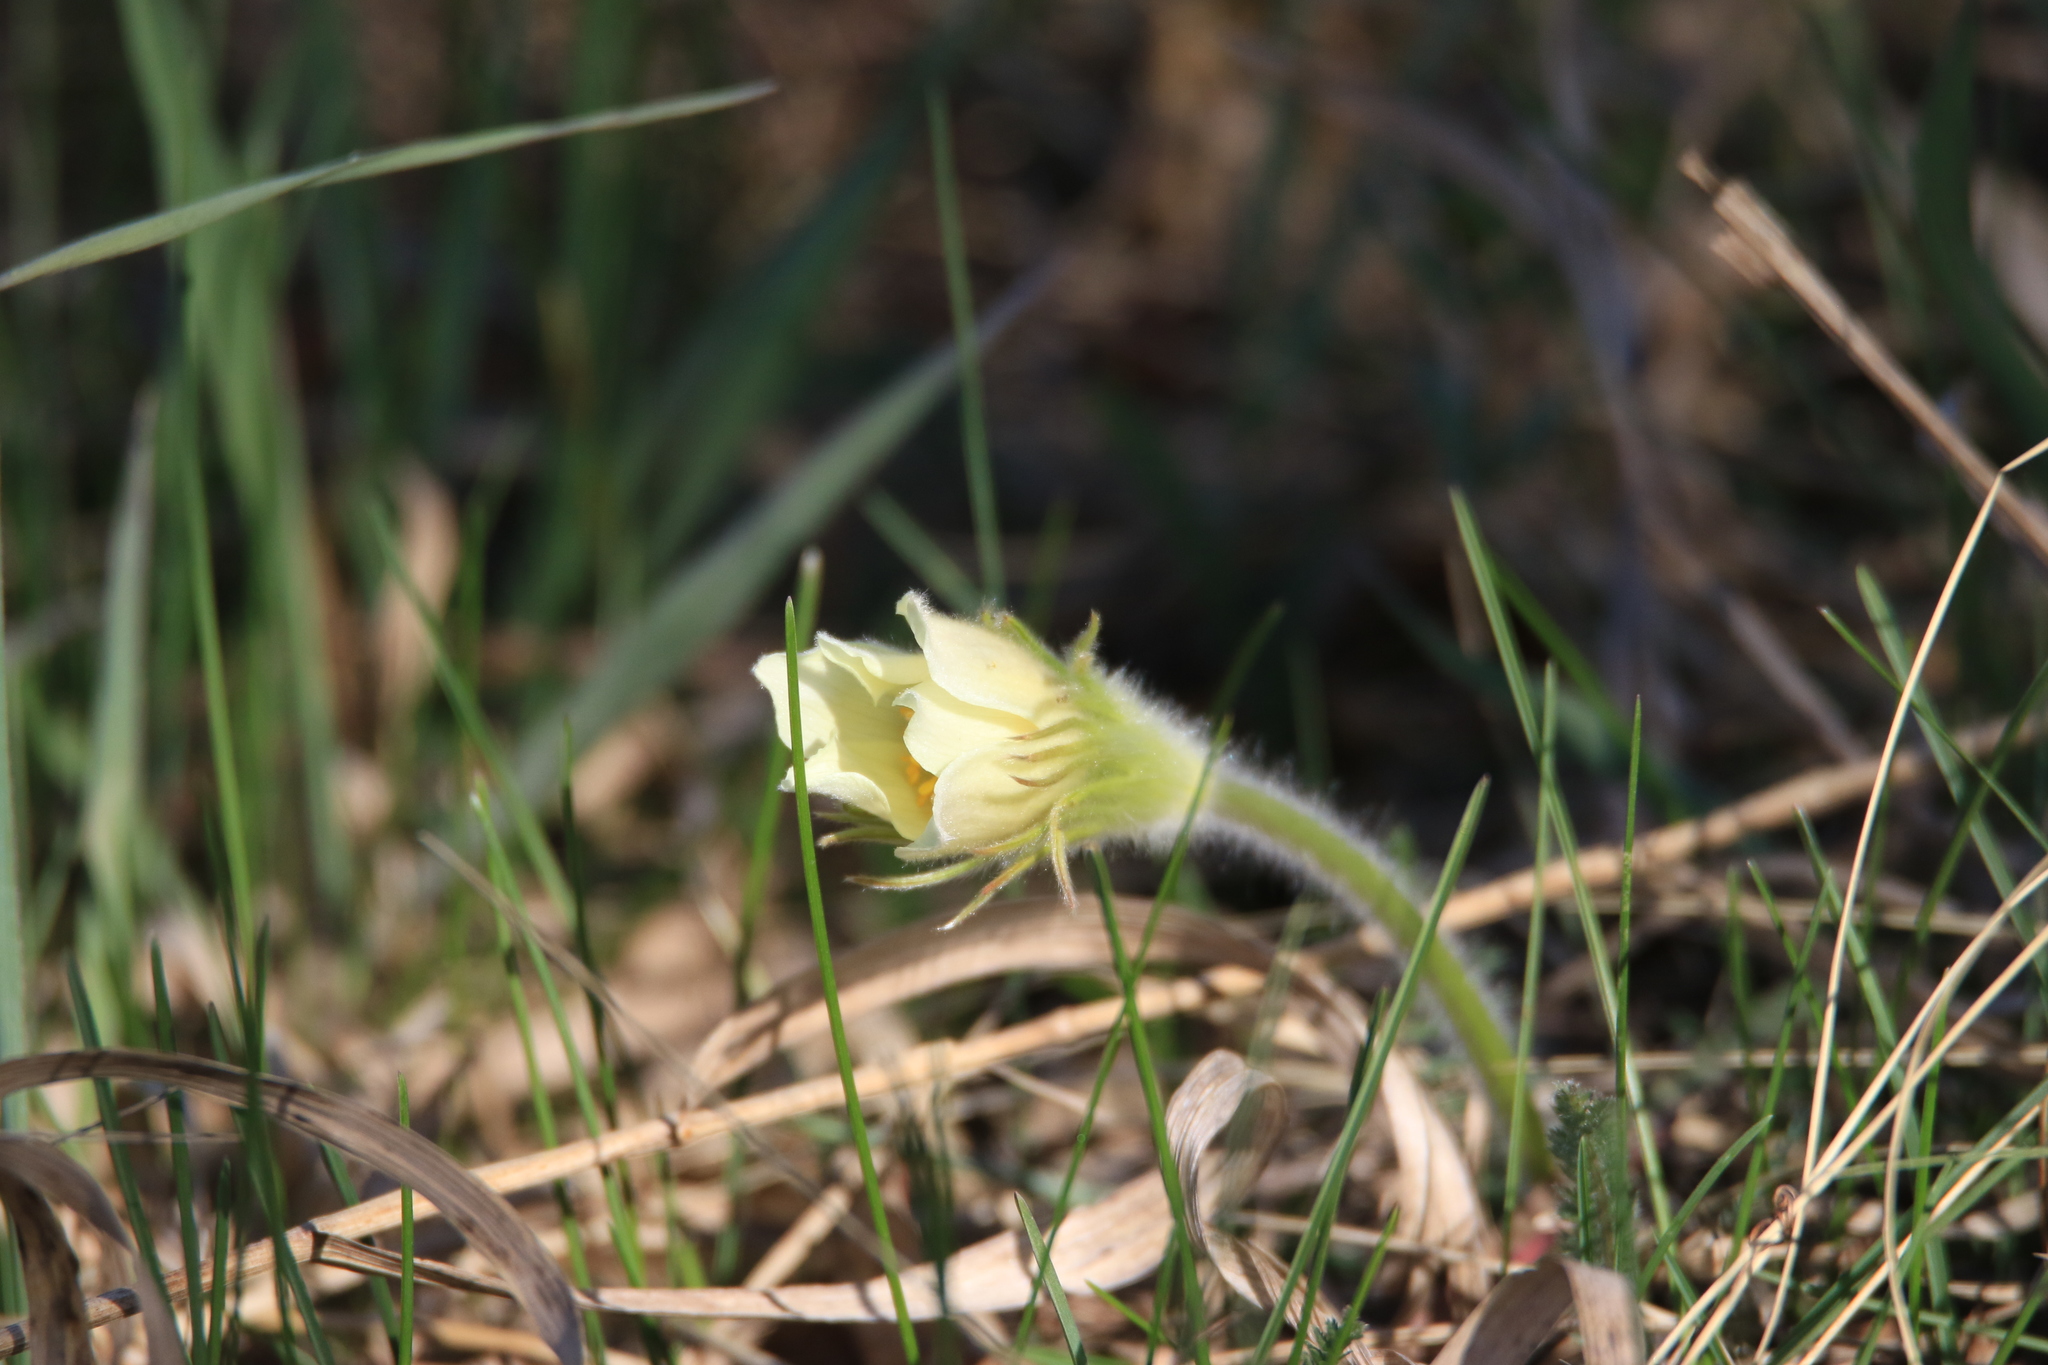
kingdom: Plantae
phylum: Tracheophyta
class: Magnoliopsida
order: Ranunculales
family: Ranunculaceae
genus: Pulsatilla
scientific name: Pulsatilla patens
